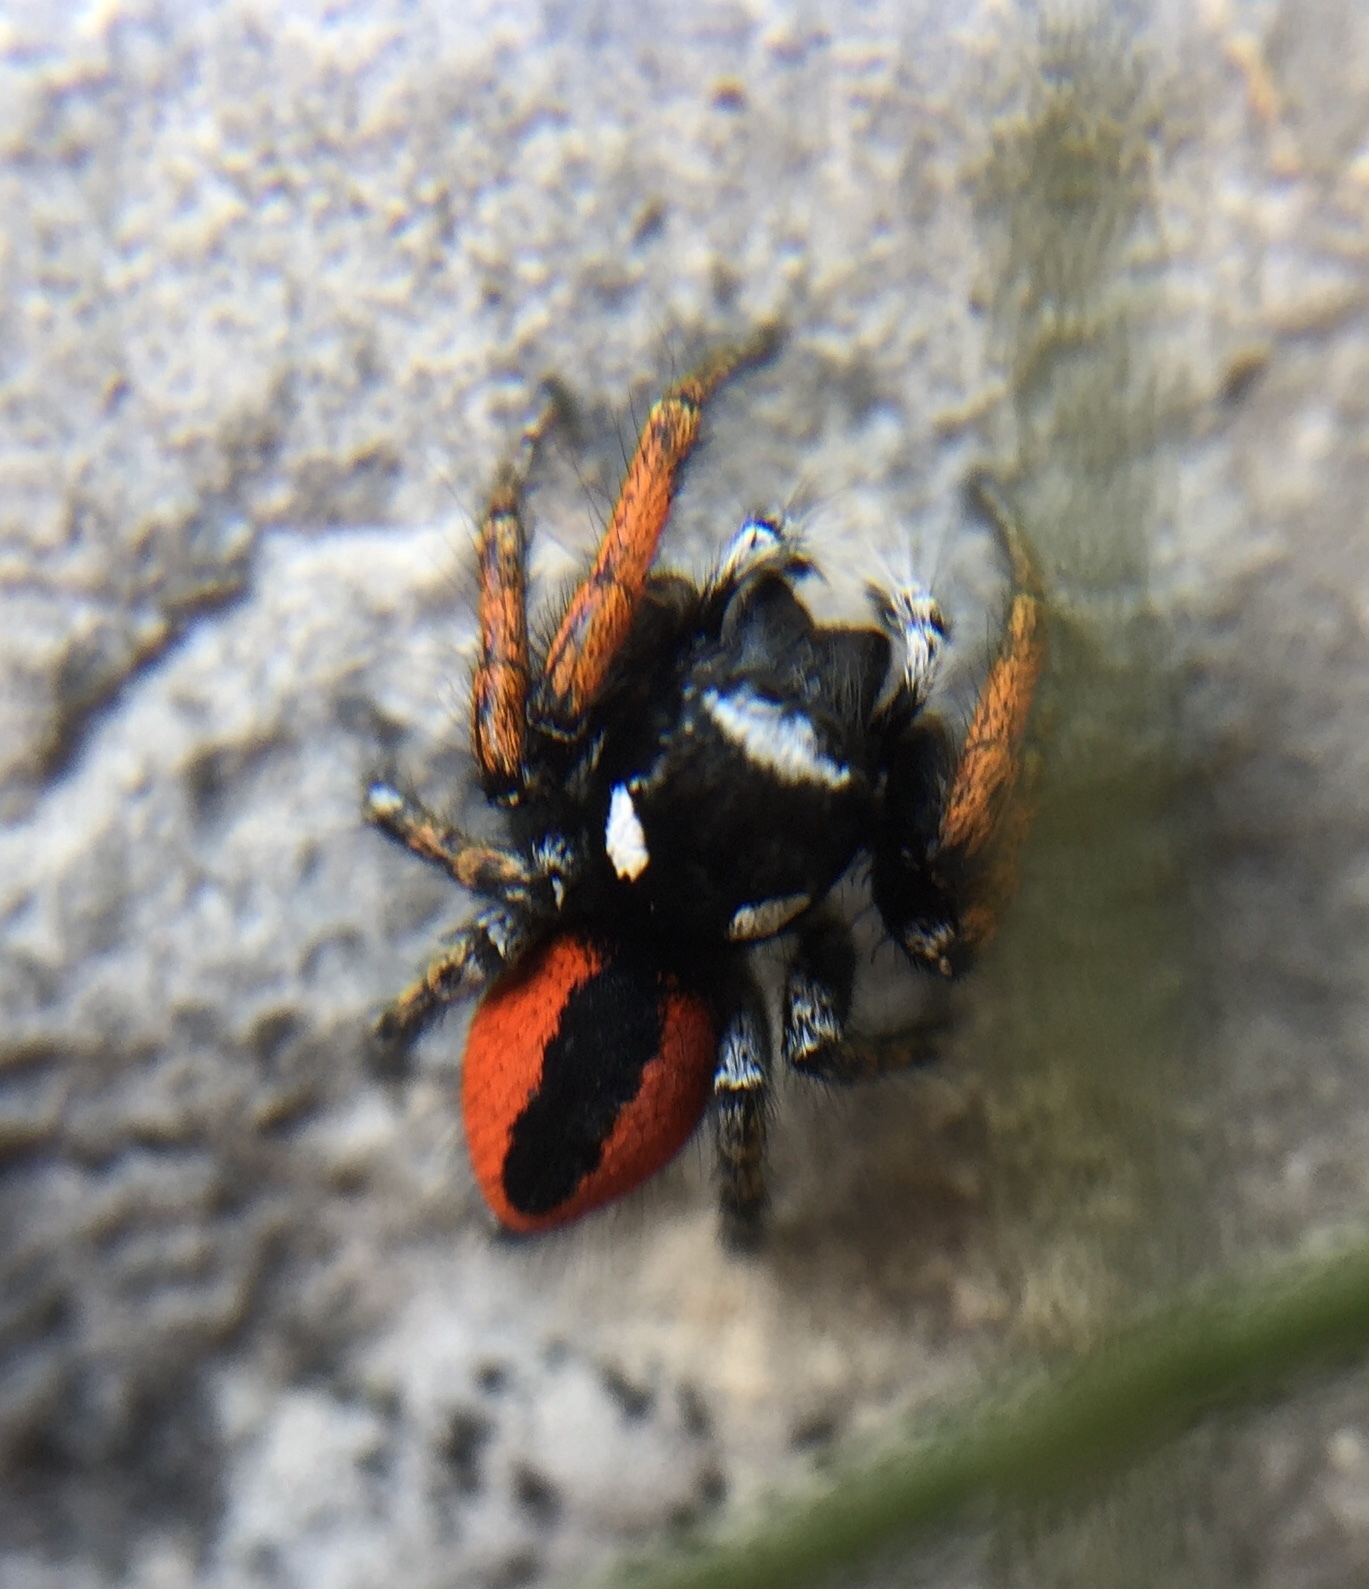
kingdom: Animalia
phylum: Arthropoda
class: Arachnida
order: Araneae
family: Salticidae
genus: Philaeus
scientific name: Philaeus chrysops
